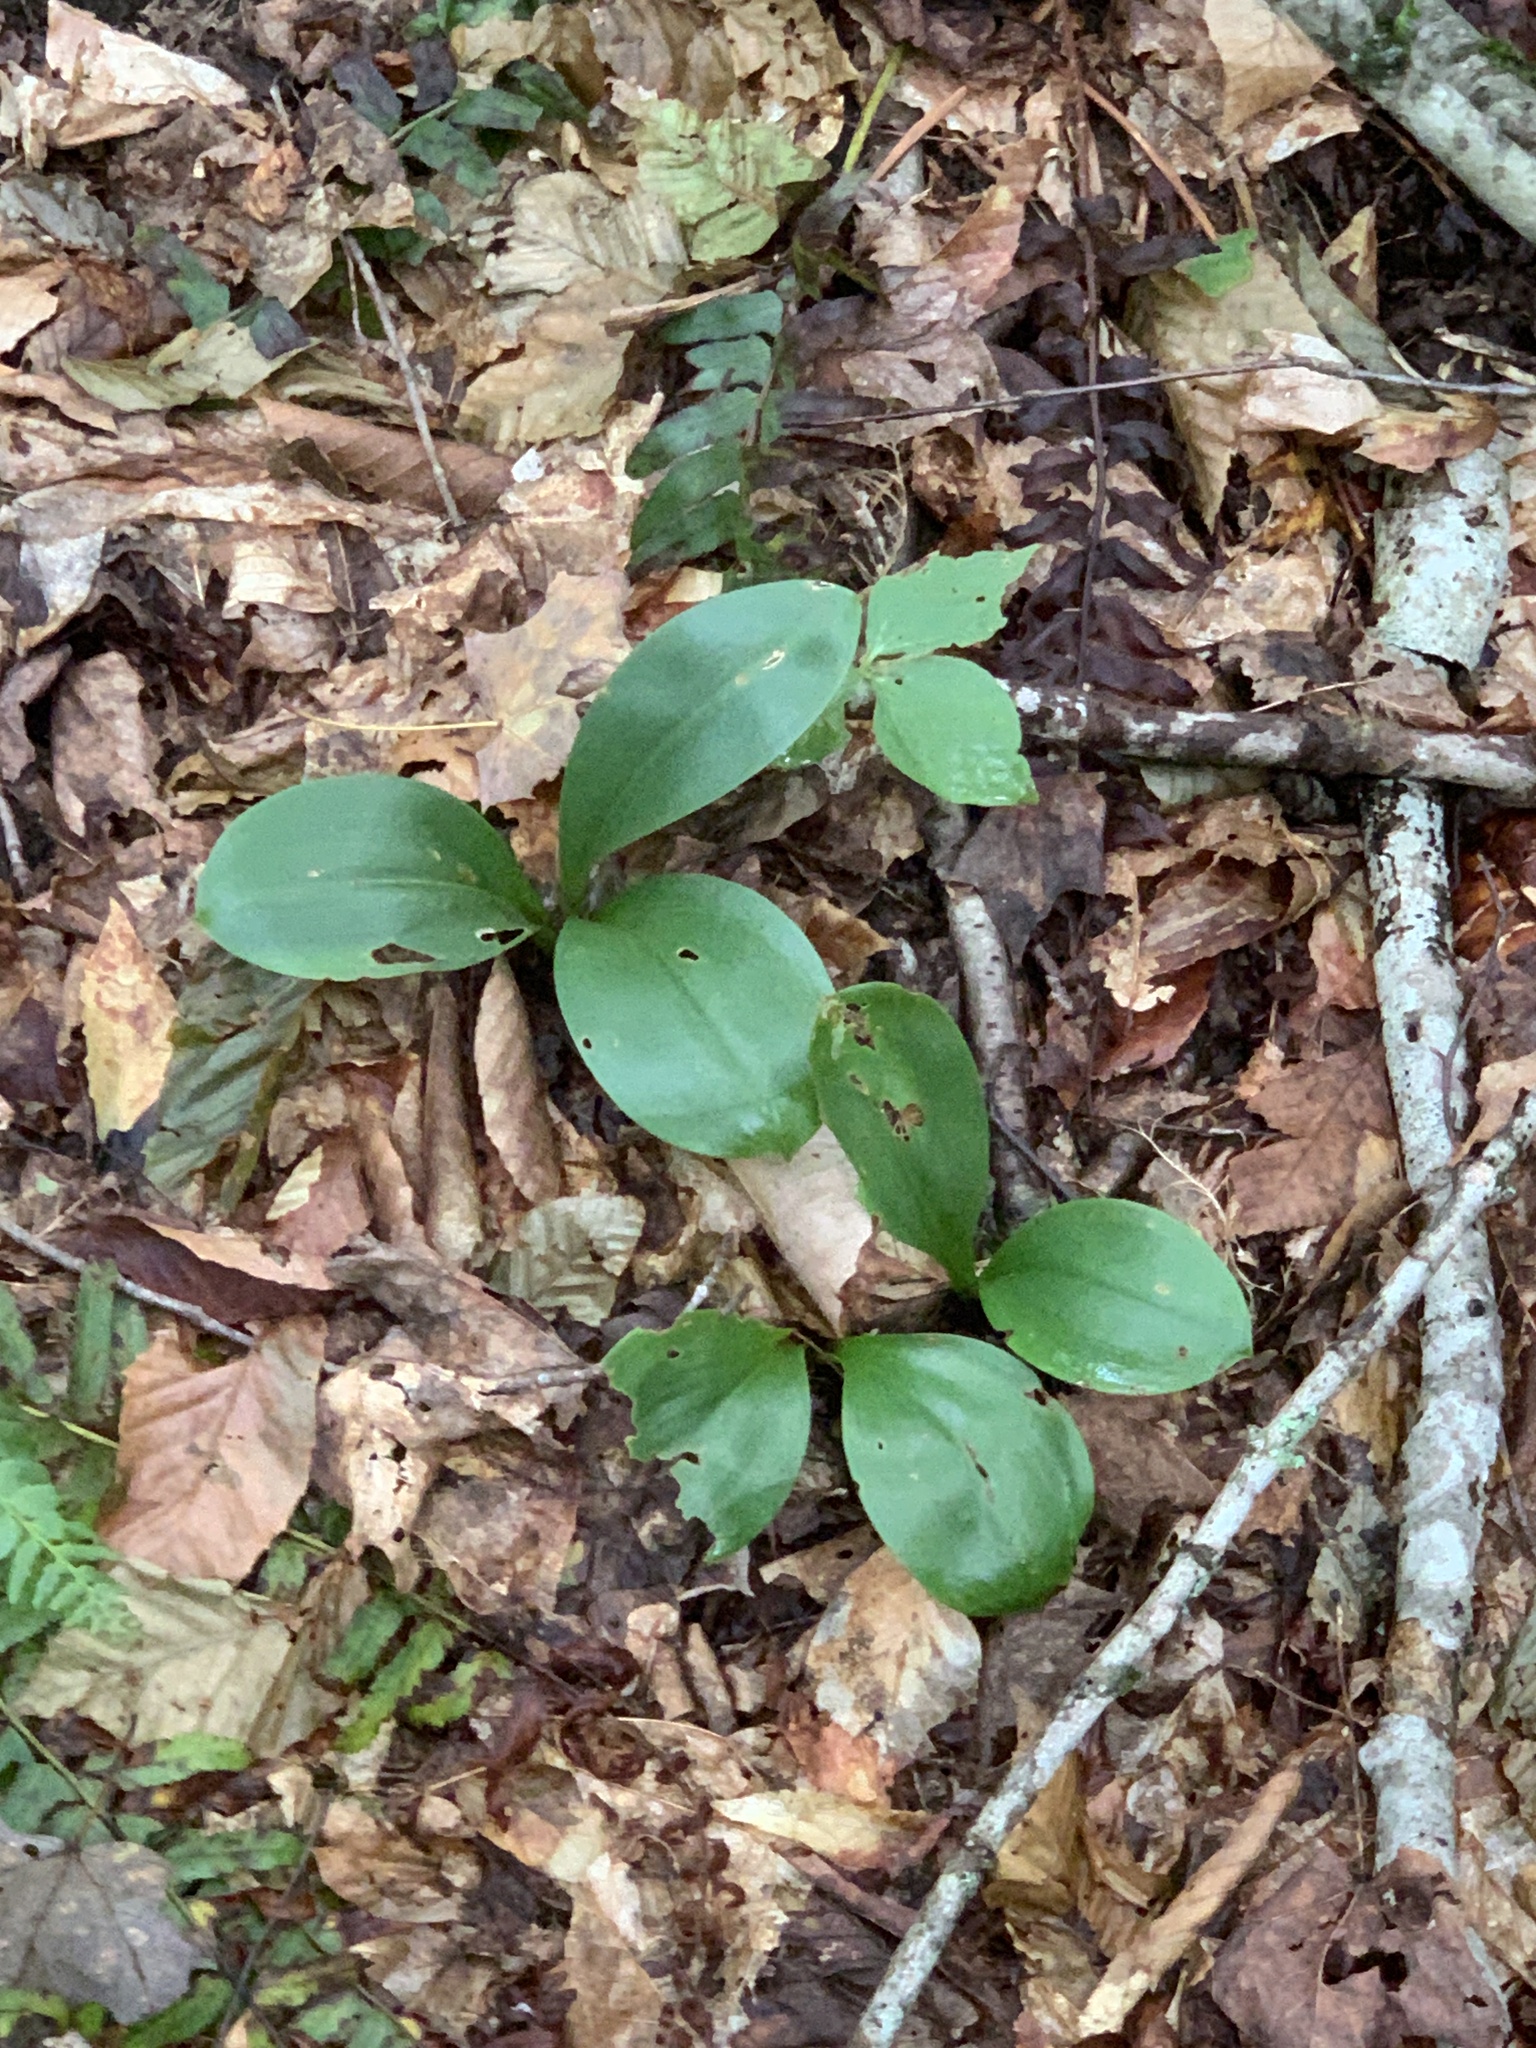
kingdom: Plantae
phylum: Tracheophyta
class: Liliopsida
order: Liliales
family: Liliaceae
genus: Clintonia
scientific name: Clintonia borealis
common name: Yellow clintonia
